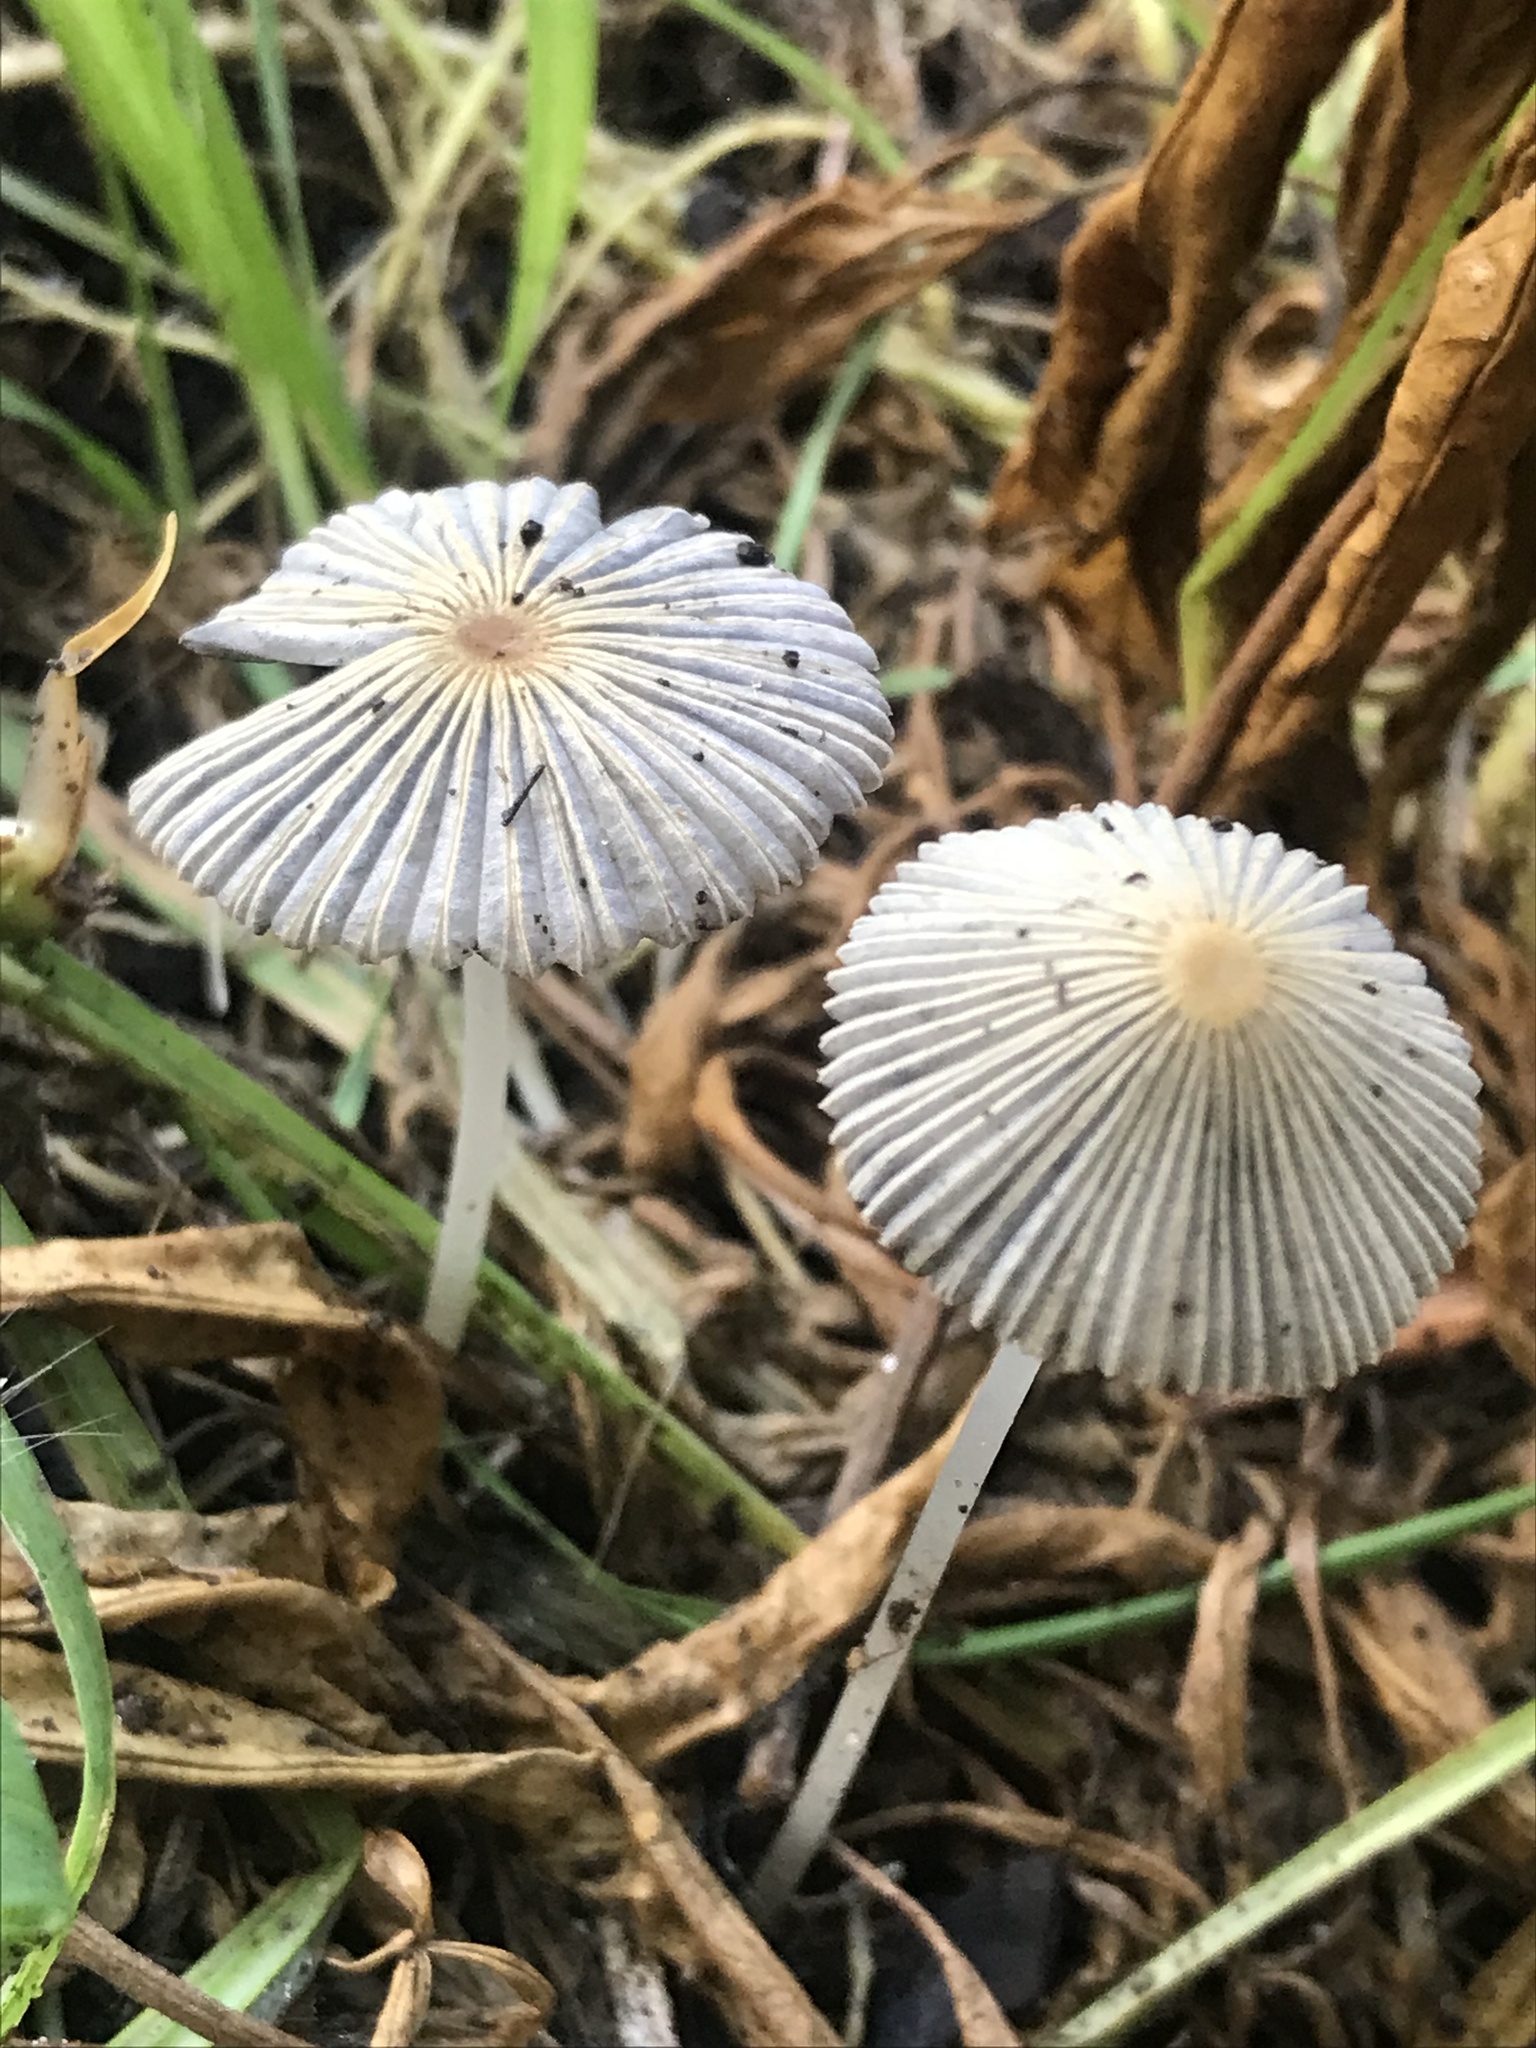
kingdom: Fungi
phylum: Basidiomycota
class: Agaricomycetes
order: Agaricales
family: Psathyrellaceae
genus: Parasola
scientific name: Parasola plicatilis
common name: Pleated inkcap
